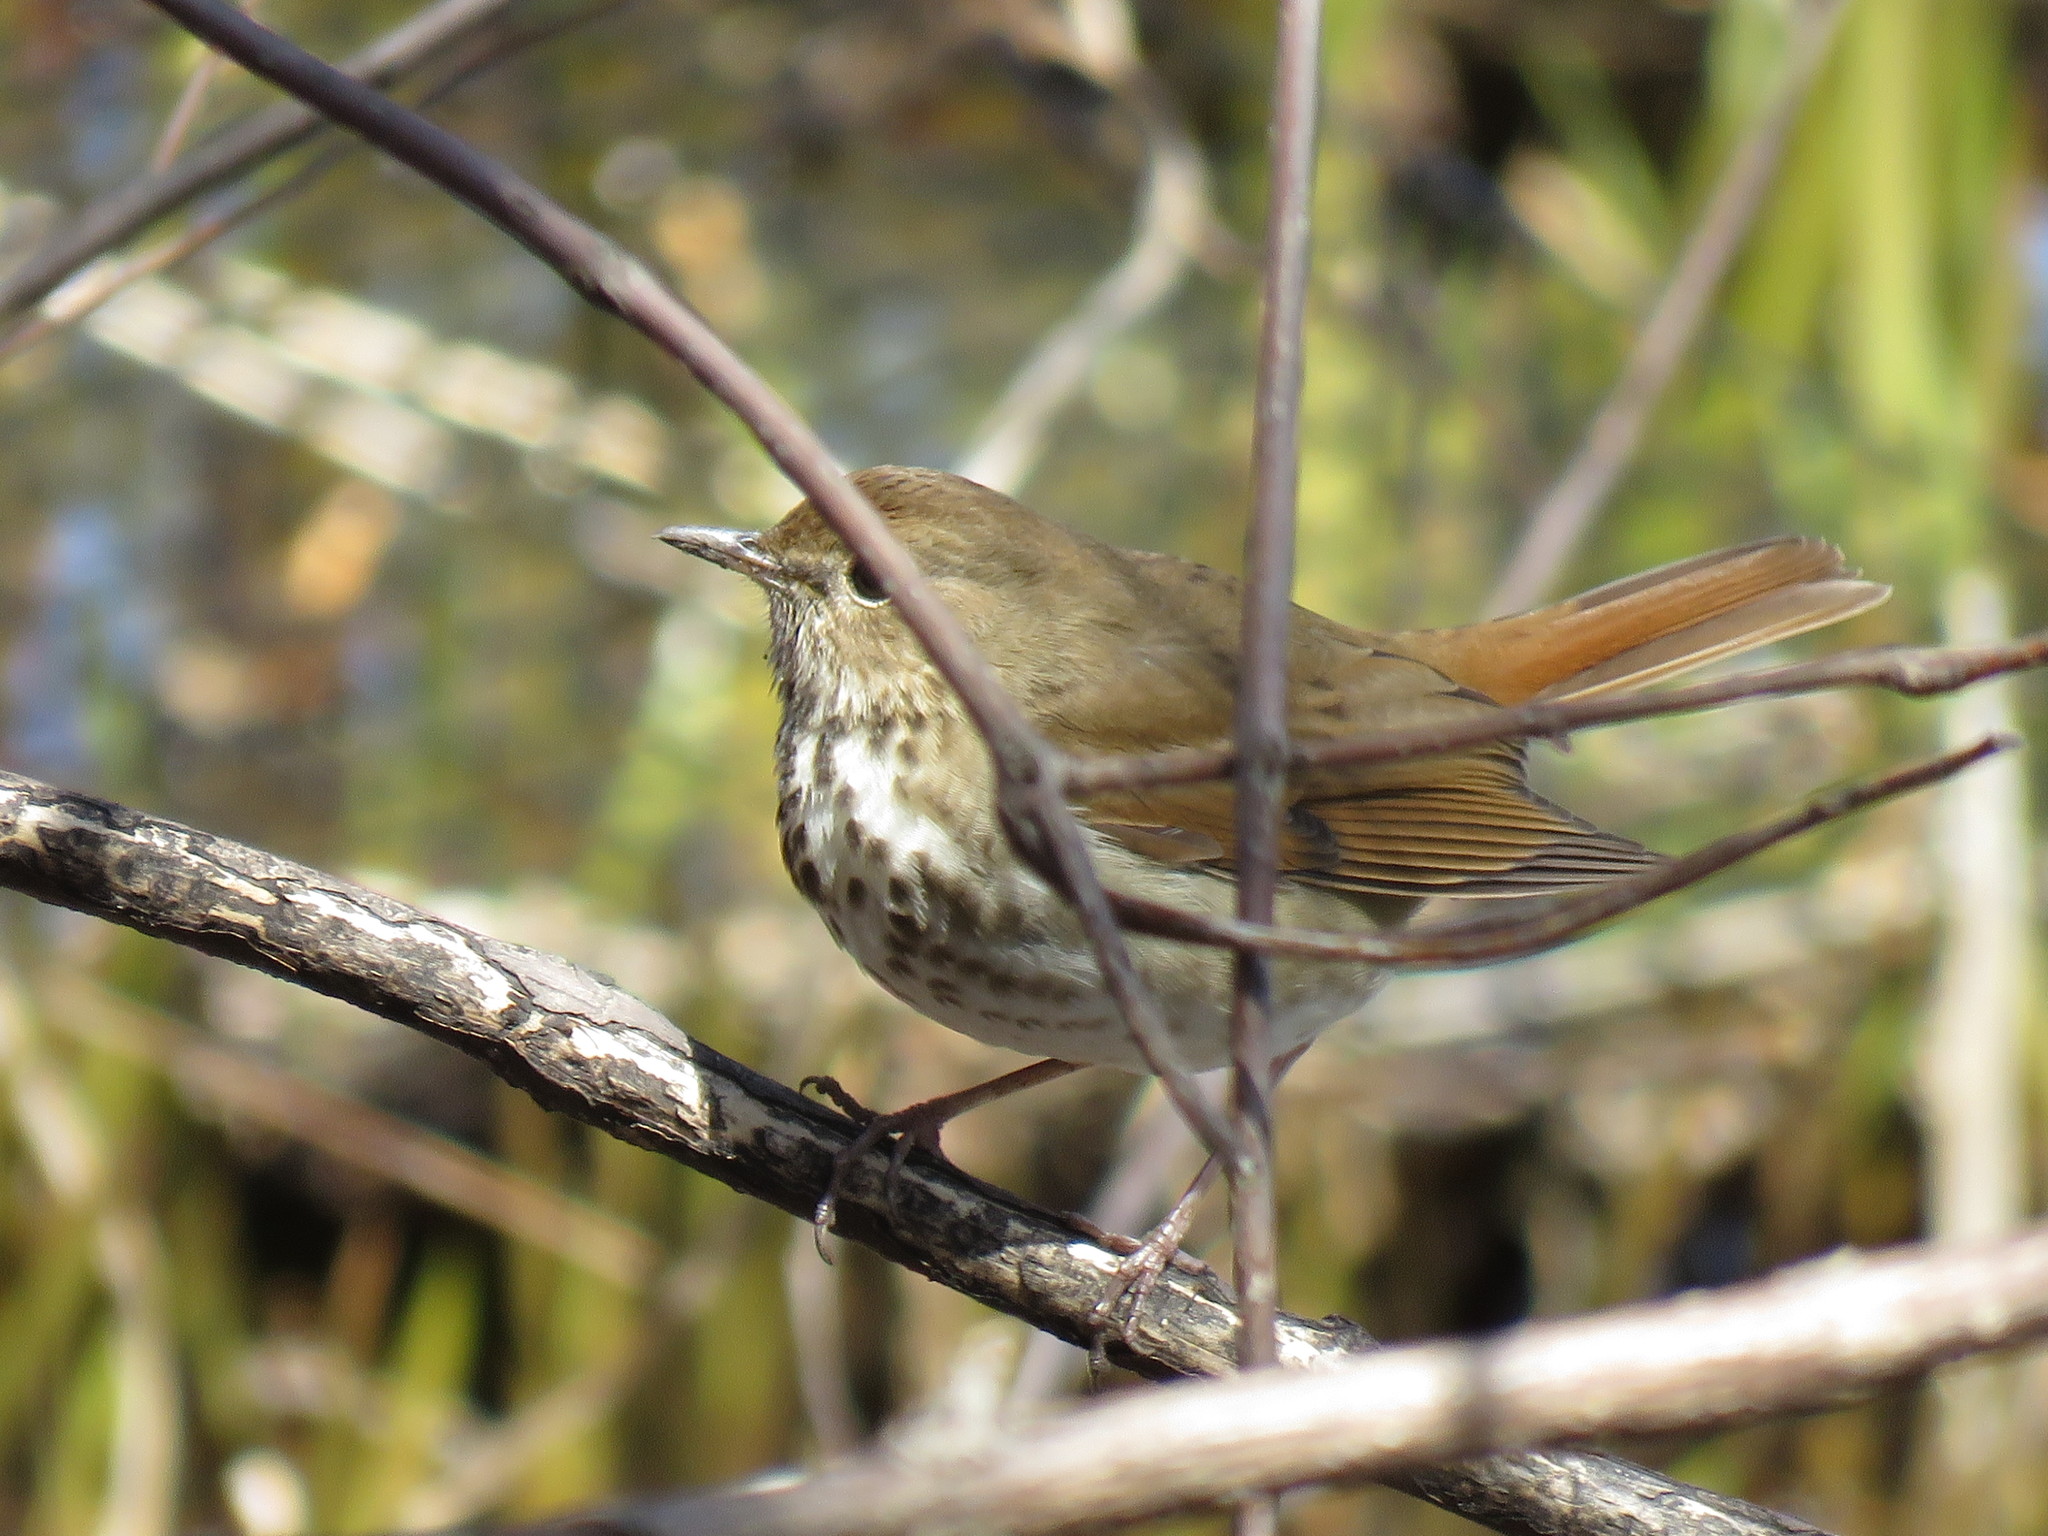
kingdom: Animalia
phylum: Chordata
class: Aves
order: Passeriformes
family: Turdidae
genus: Catharus
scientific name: Catharus guttatus
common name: Hermit thrush
